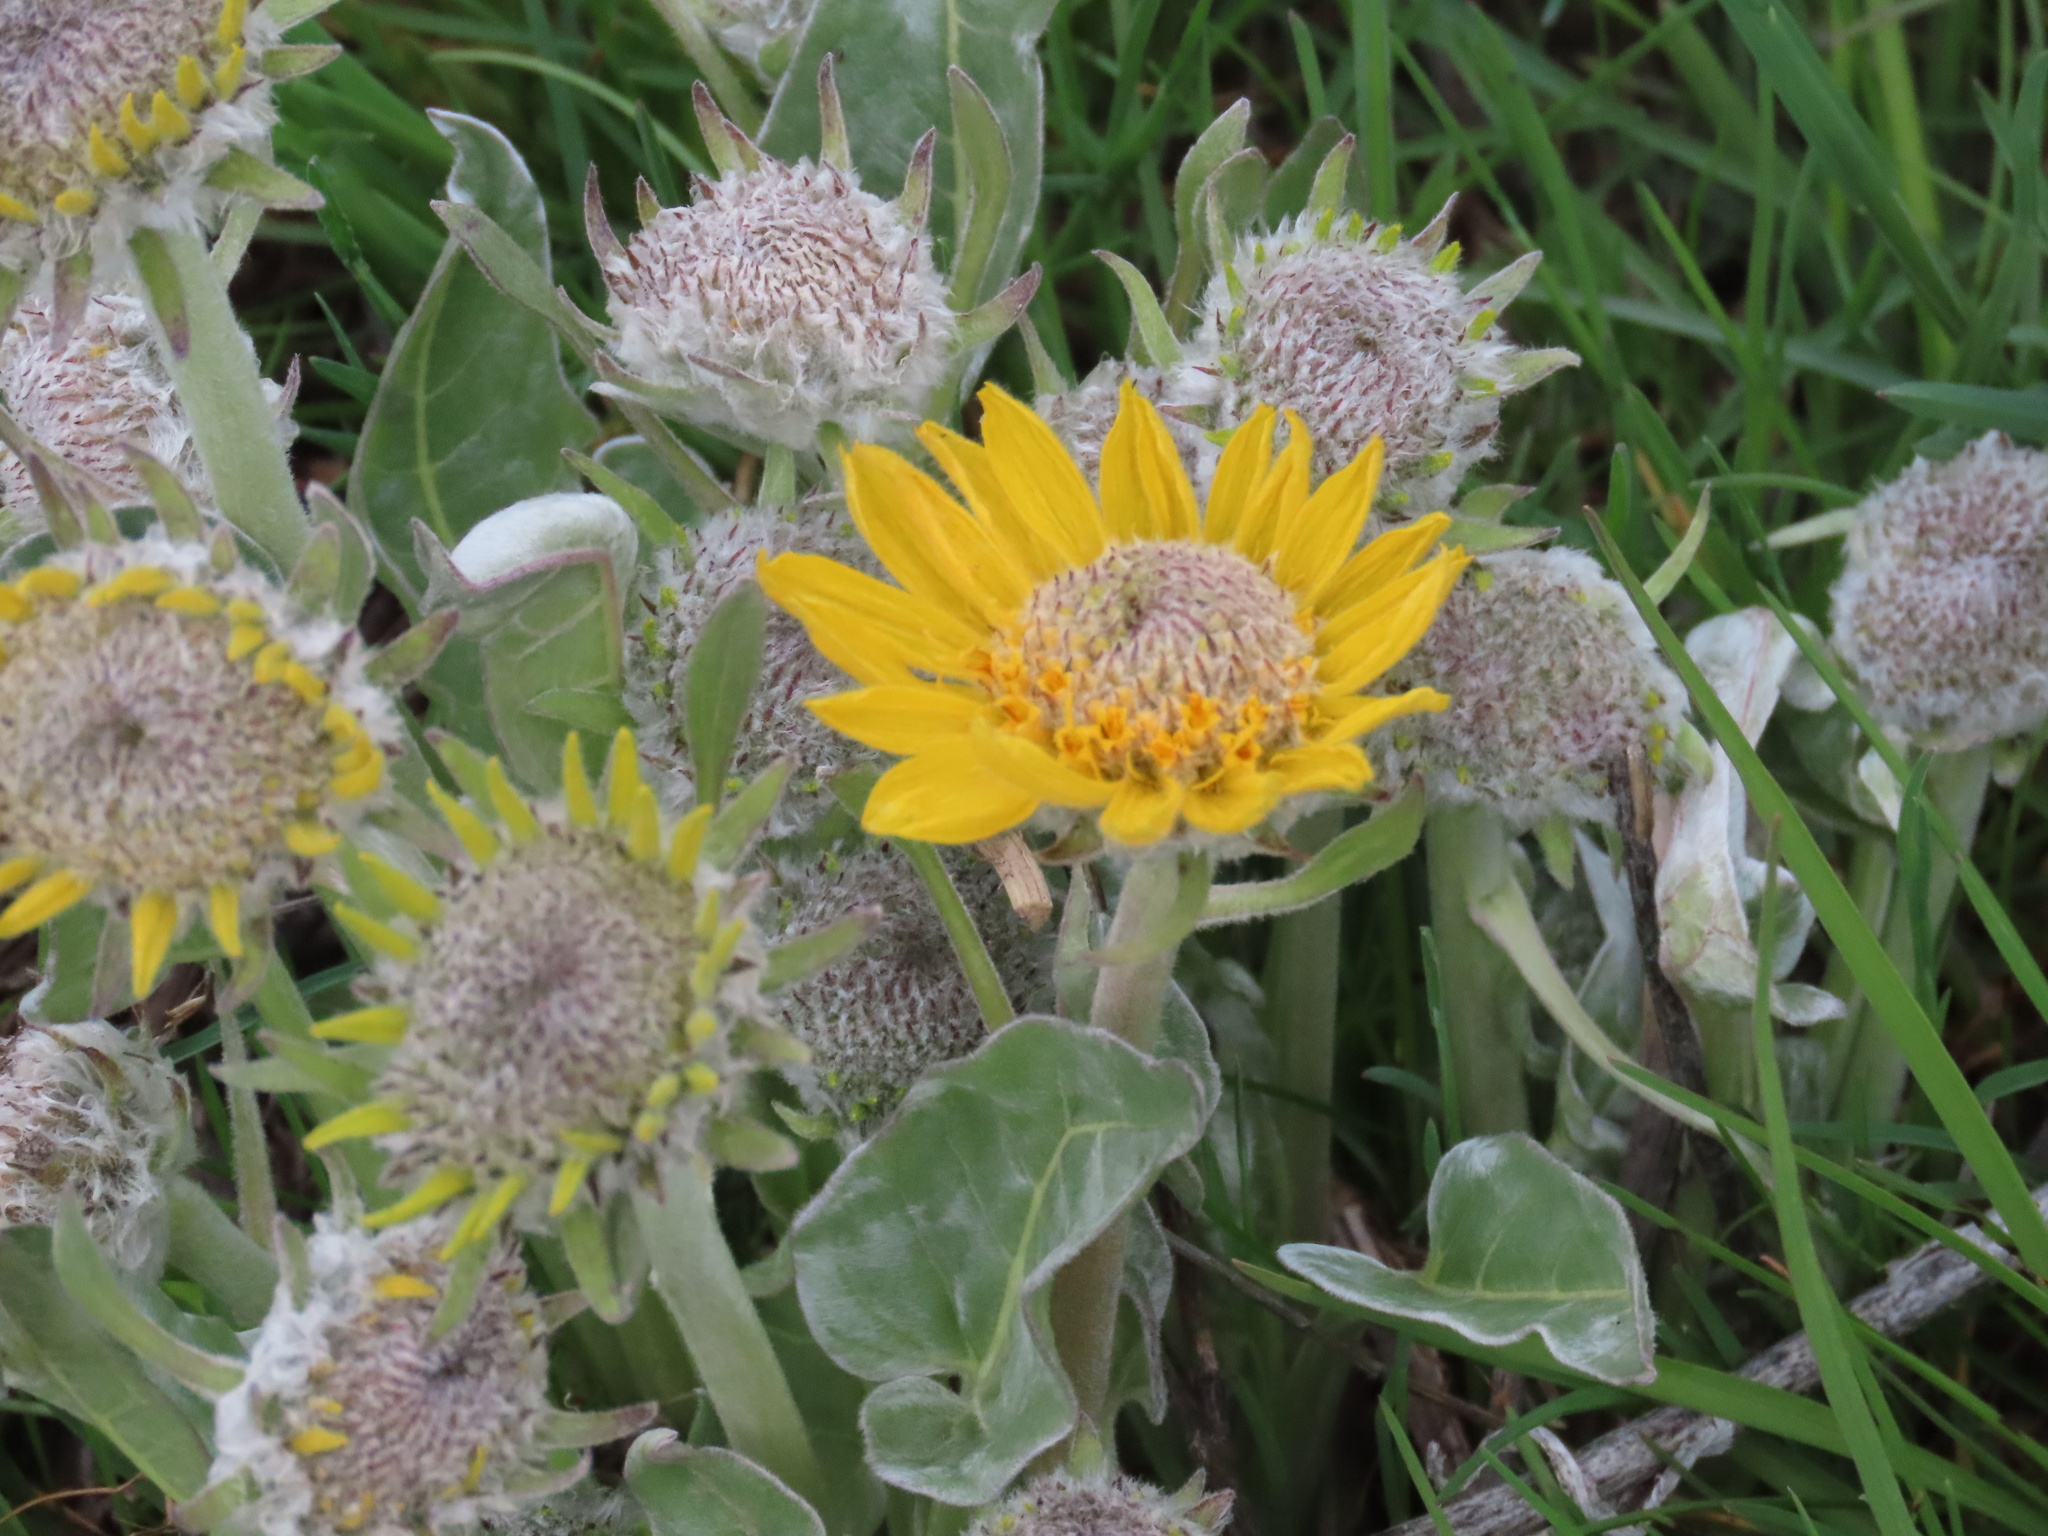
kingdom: Plantae
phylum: Tracheophyta
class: Magnoliopsida
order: Asterales
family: Asteraceae
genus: Wyethia
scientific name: Wyethia sagittata
